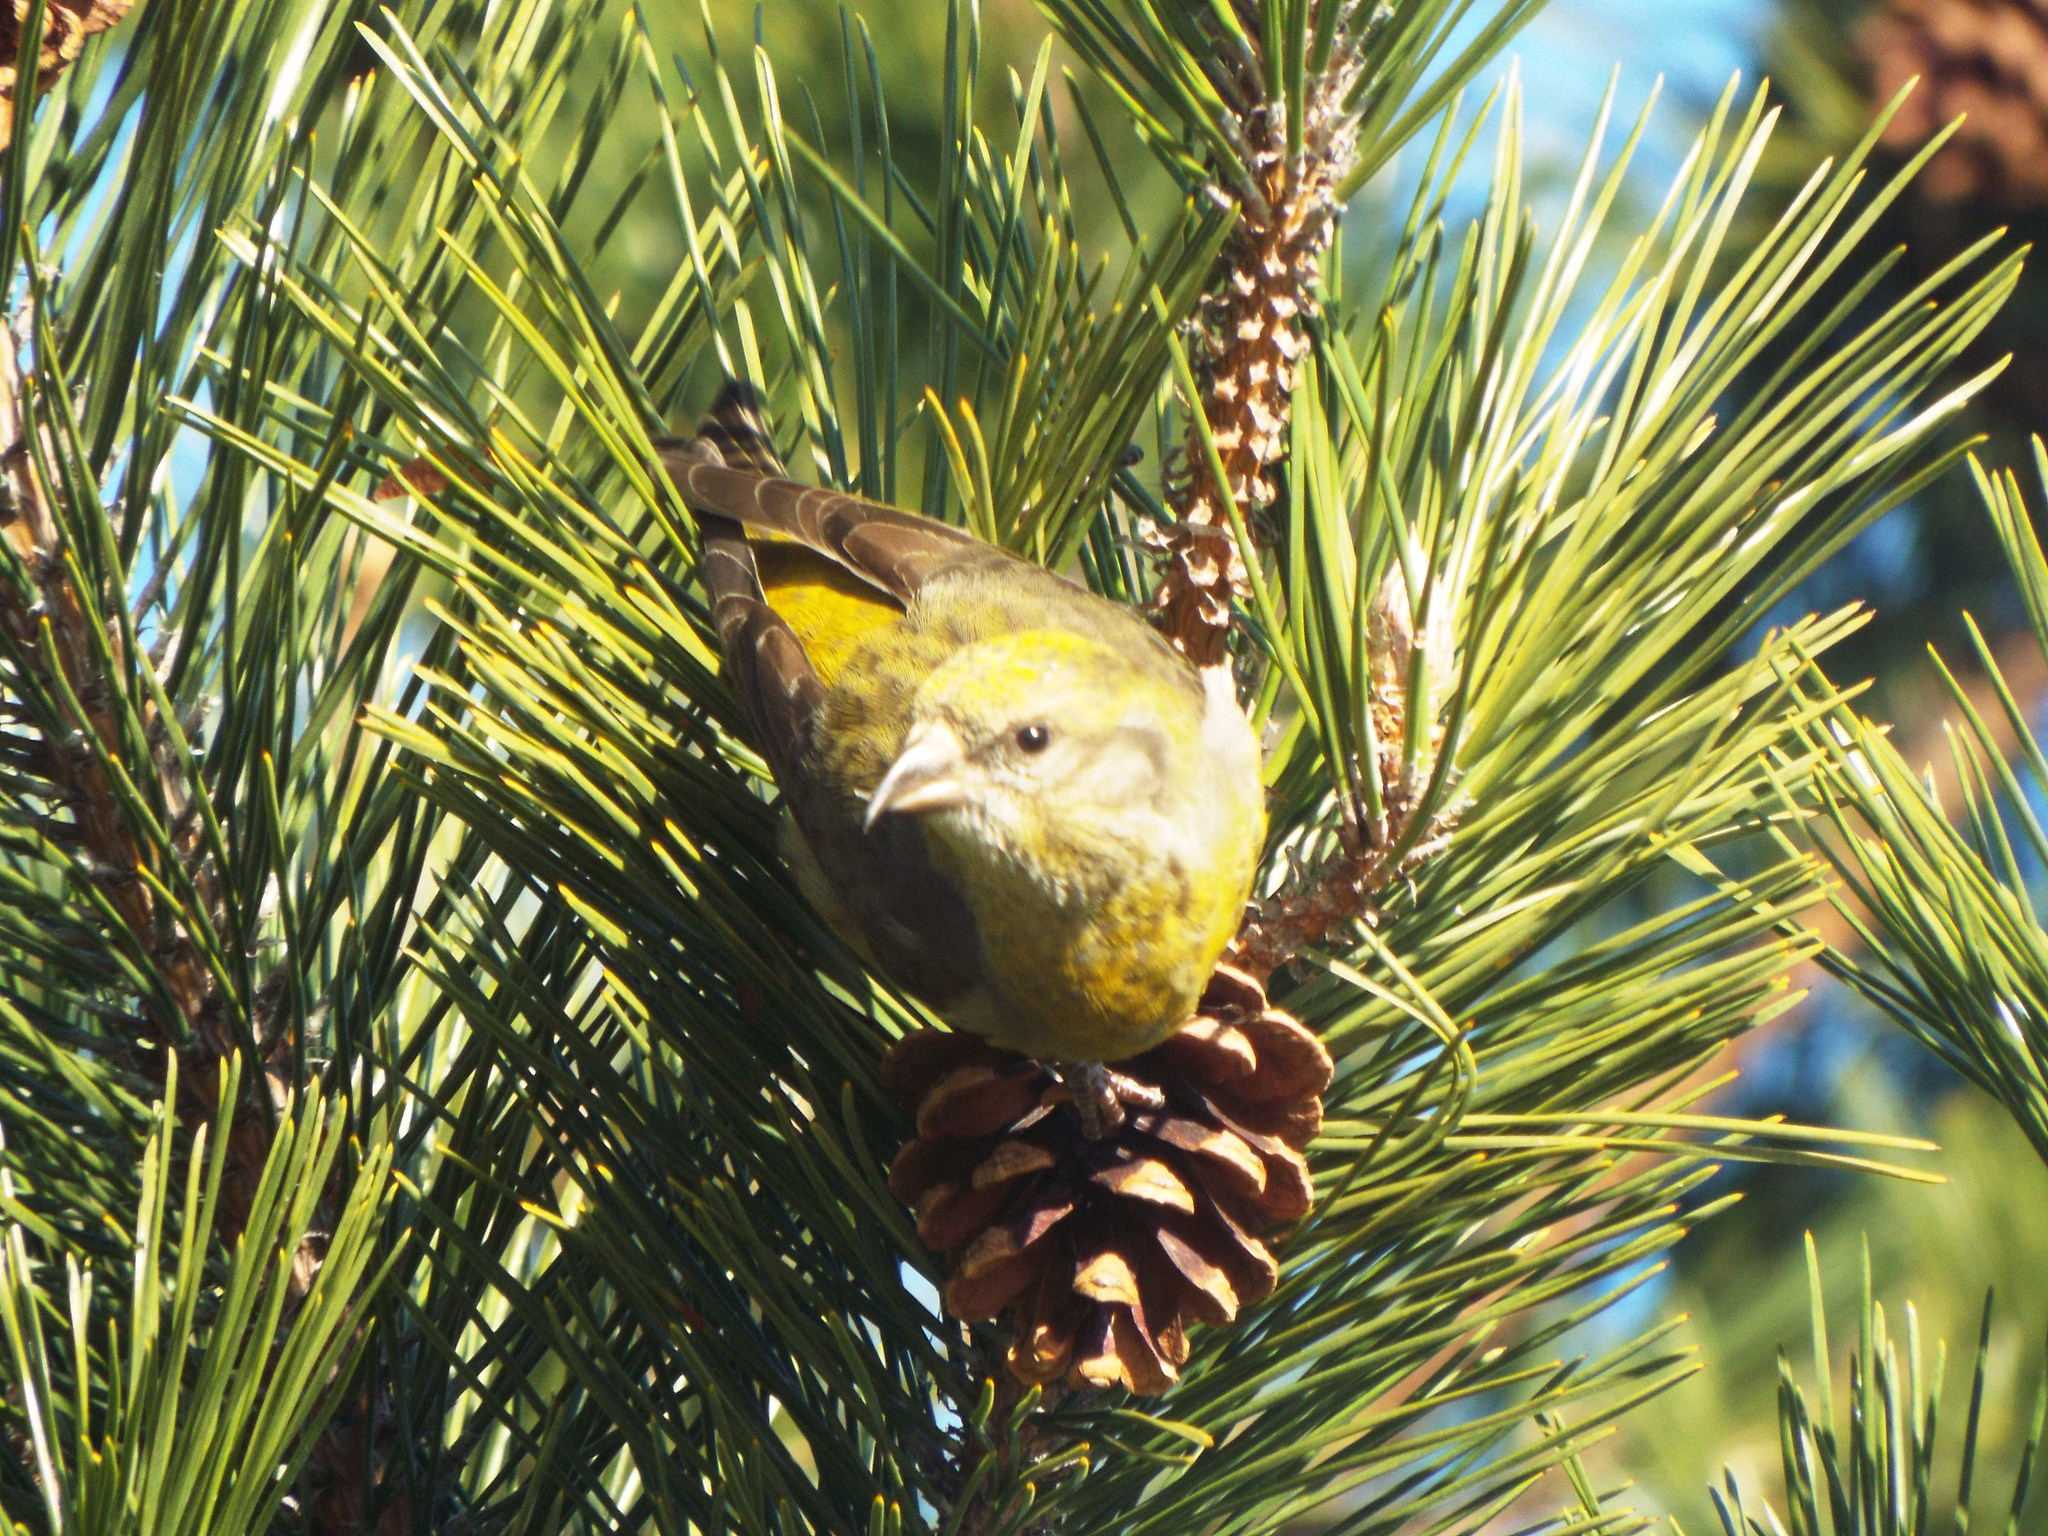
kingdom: Animalia
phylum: Chordata
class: Aves
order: Passeriformes
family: Fringillidae
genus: Loxia
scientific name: Loxia curvirostra
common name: Red crossbill
